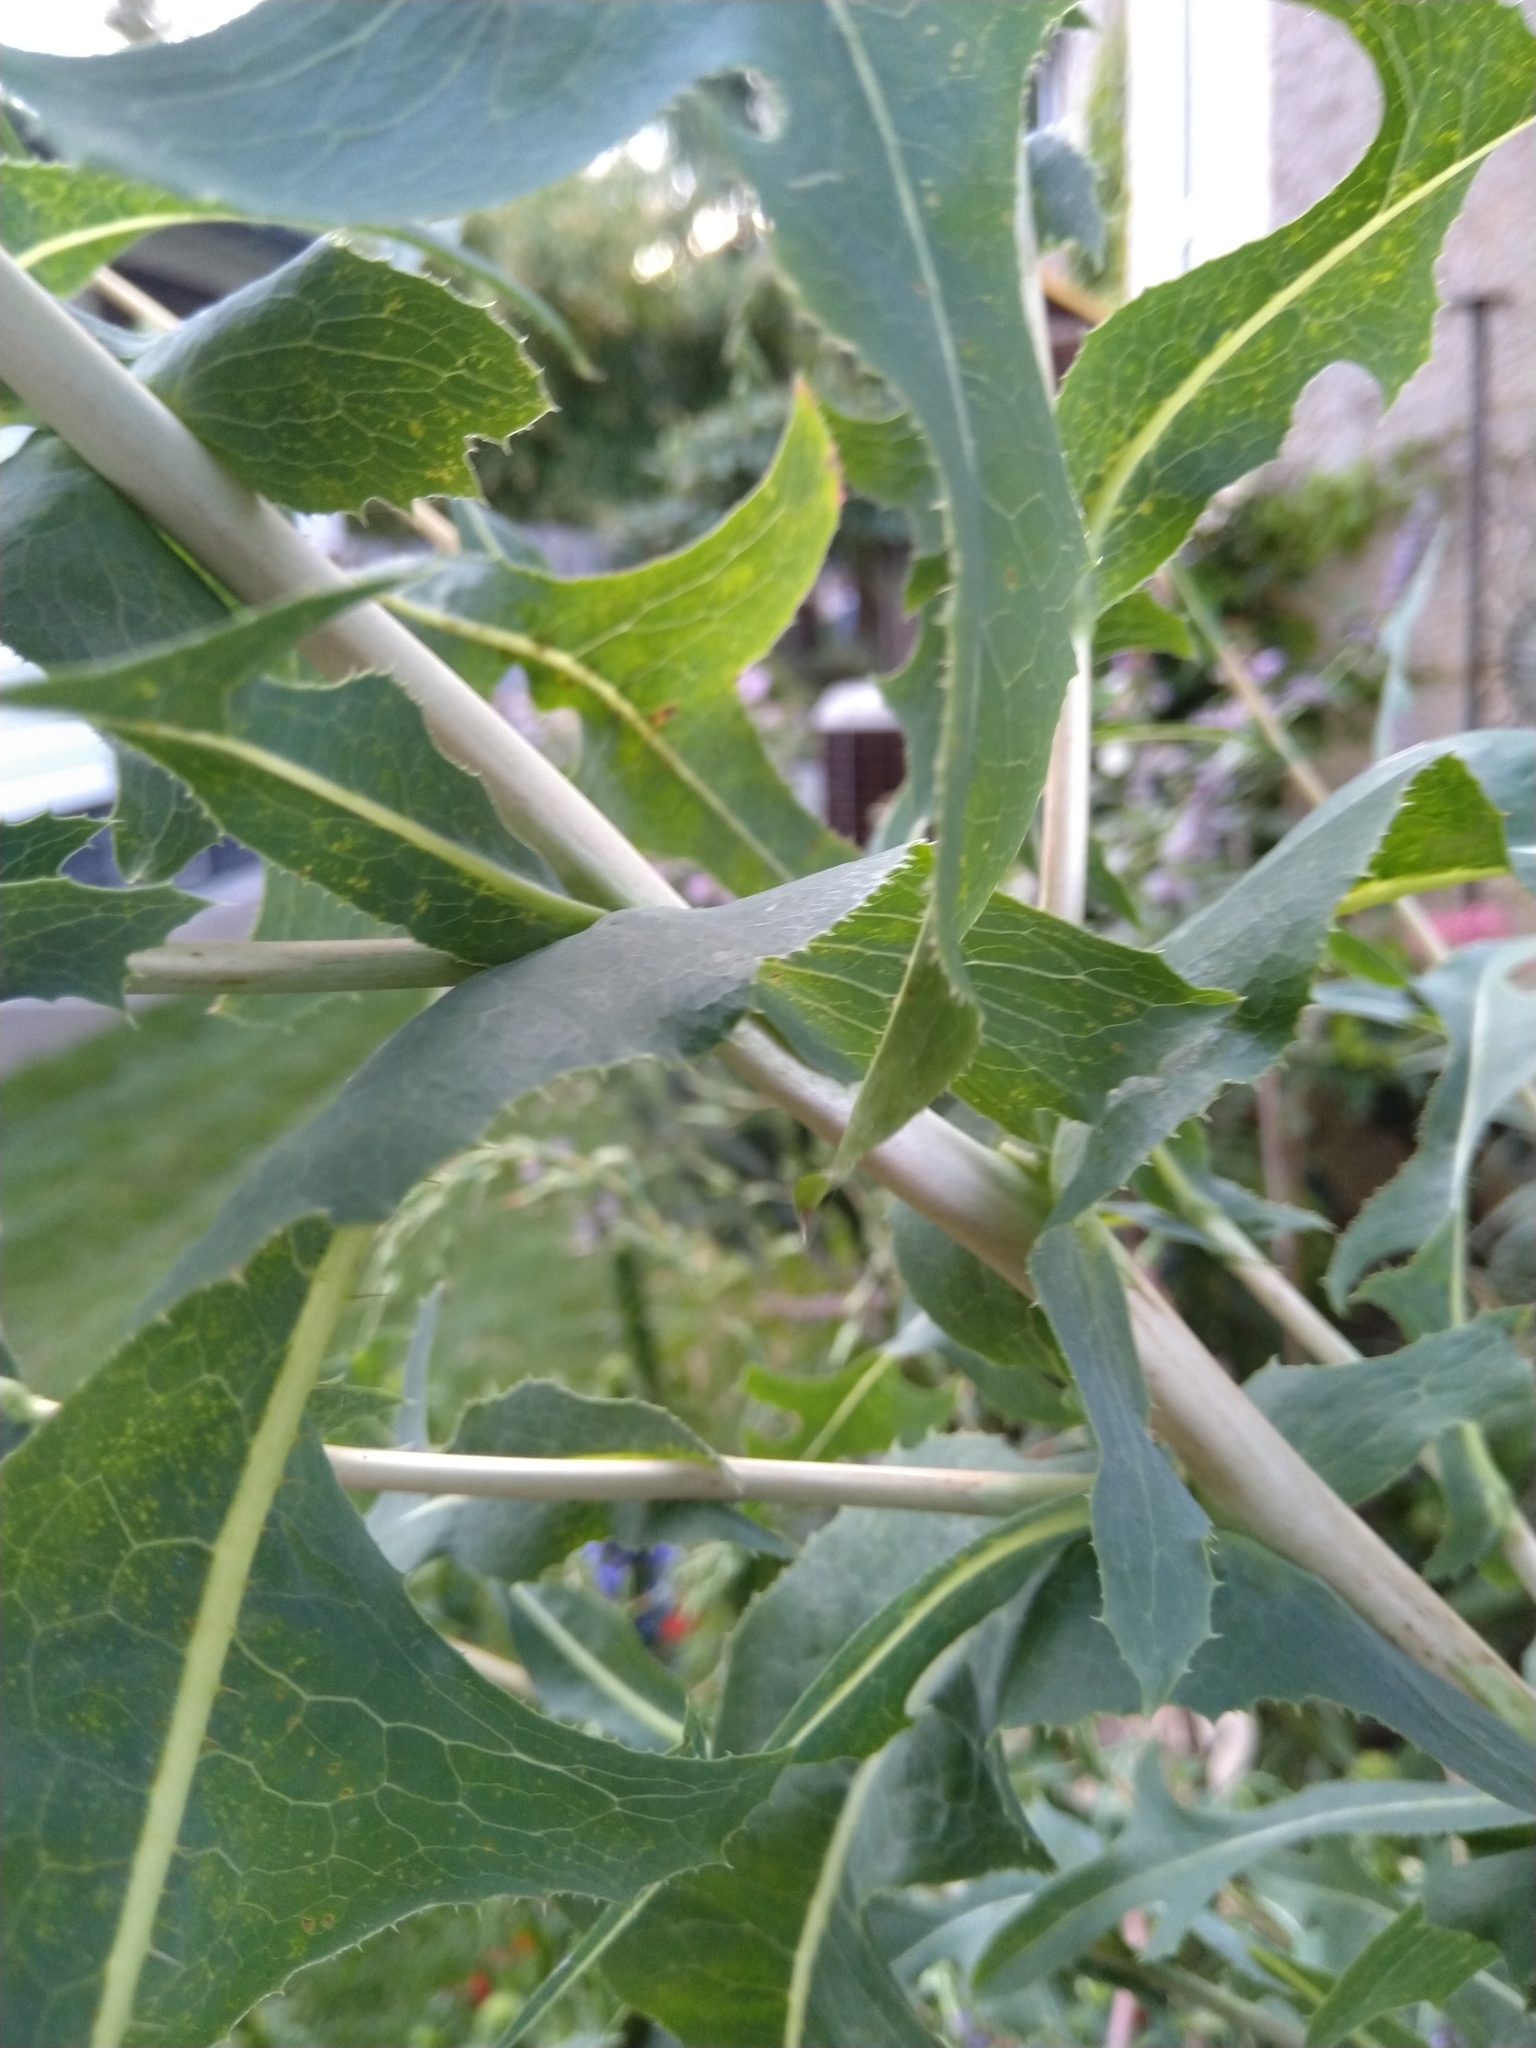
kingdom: Plantae
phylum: Tracheophyta
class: Magnoliopsida
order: Asterales
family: Asteraceae
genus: Lactuca
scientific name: Lactuca serriola
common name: Prickly lettuce
